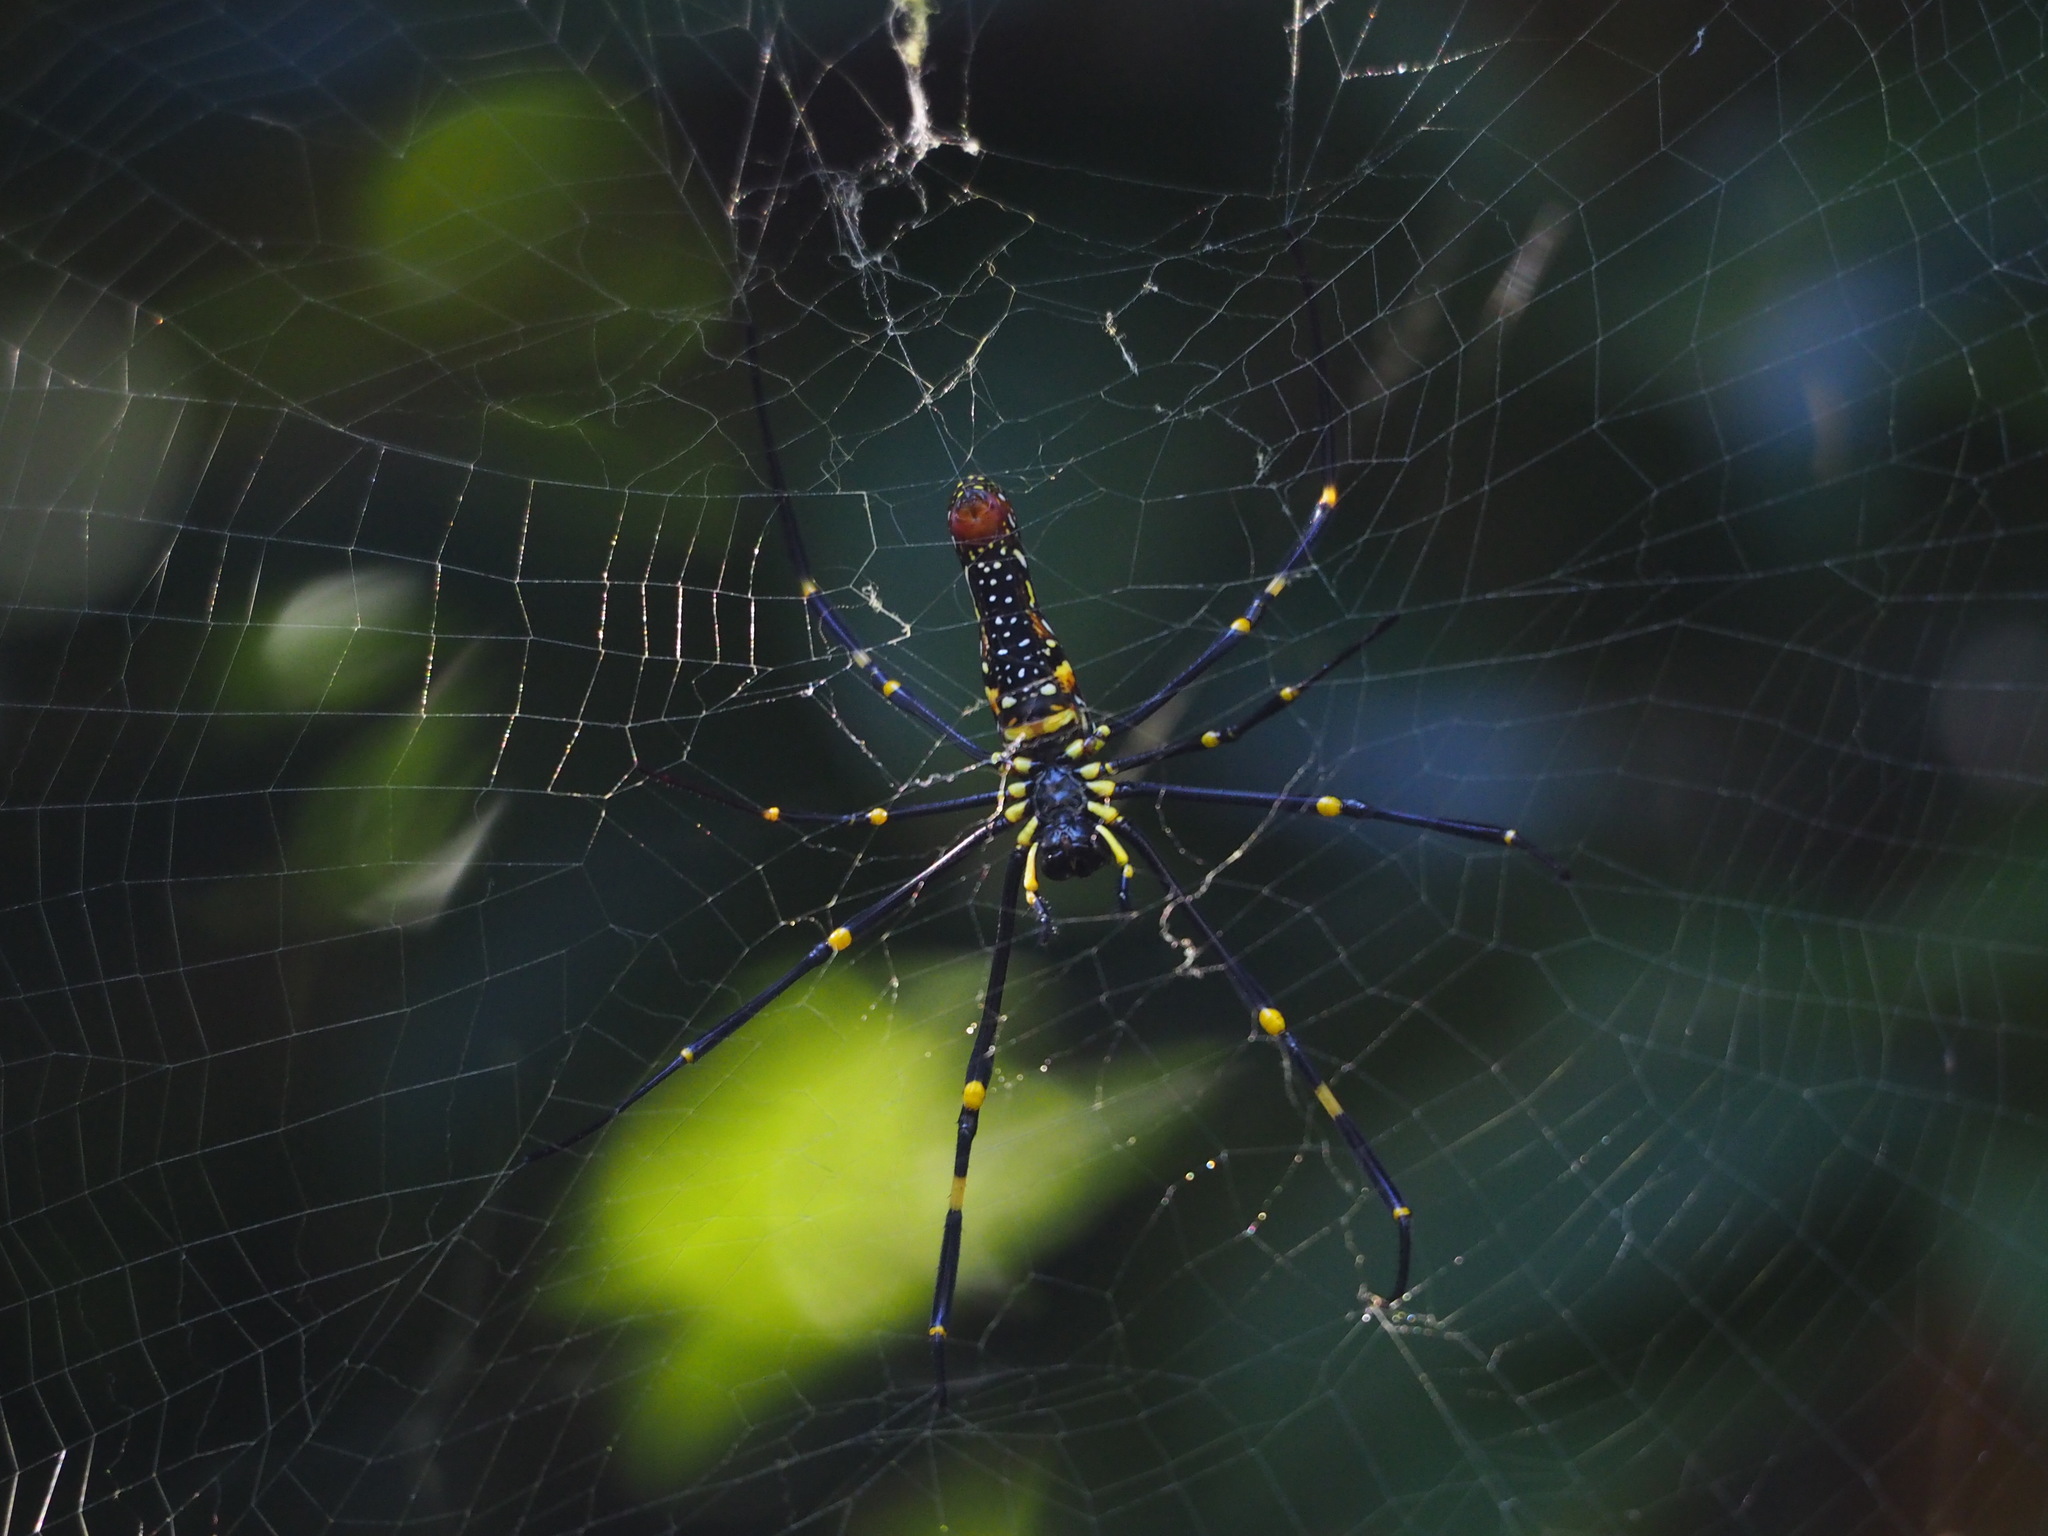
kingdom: Animalia
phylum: Arthropoda
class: Arachnida
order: Araneae
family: Araneidae
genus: Nephila
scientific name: Nephila pilipes
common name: Giant golden orb weaver
